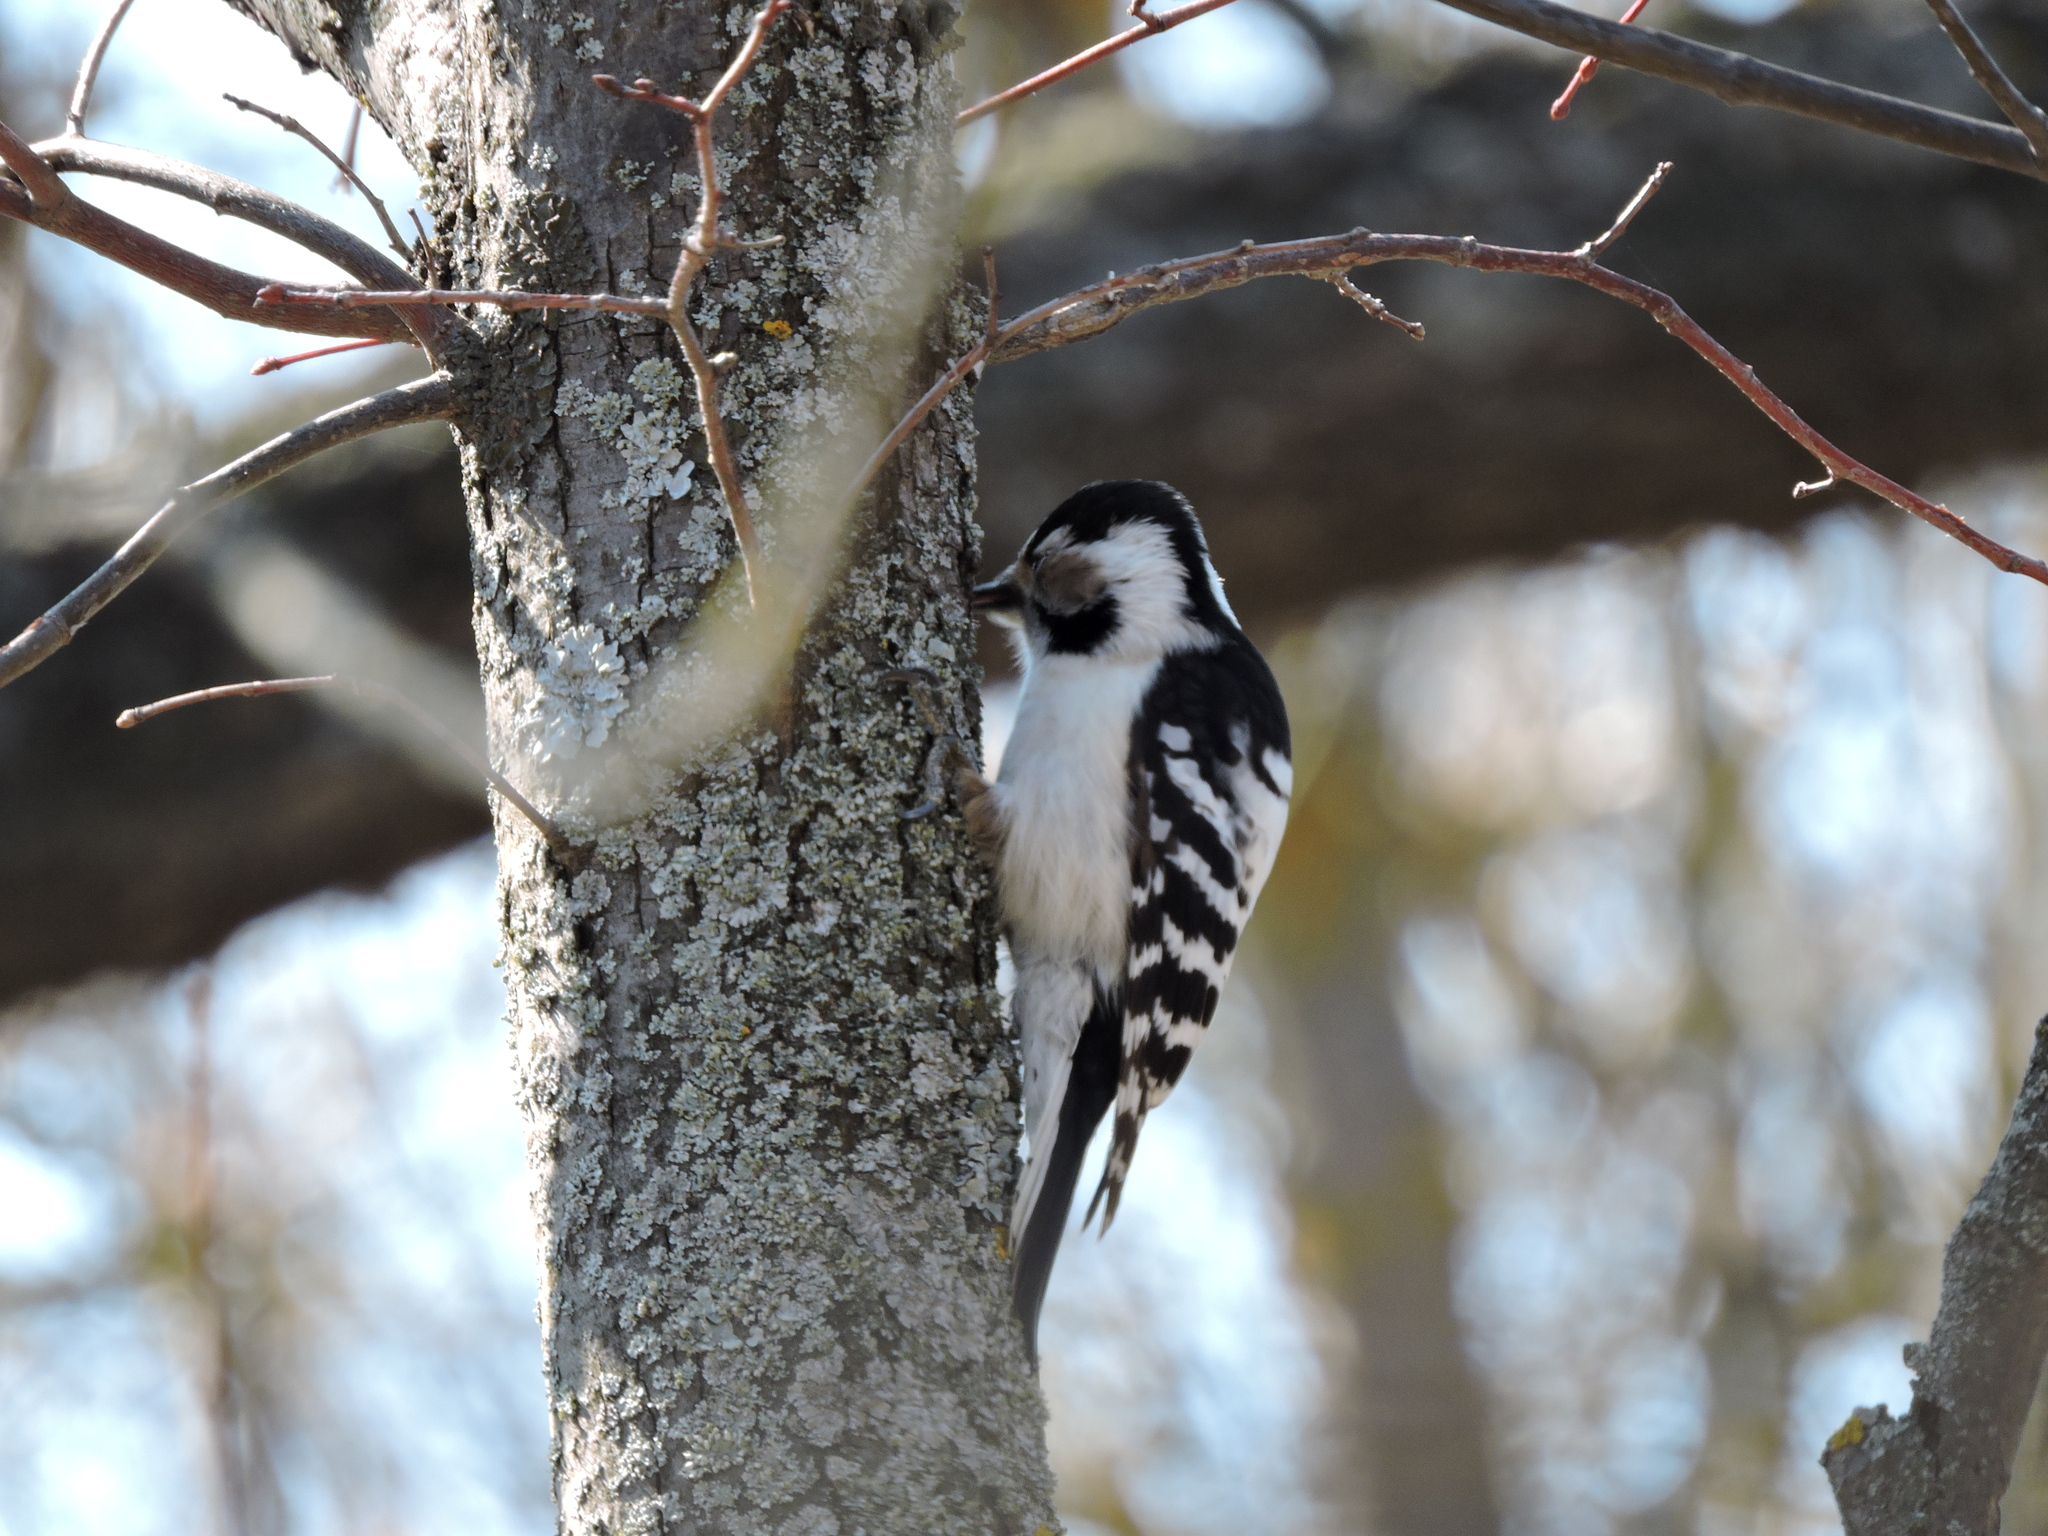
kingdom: Animalia
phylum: Chordata
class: Aves
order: Piciformes
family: Picidae
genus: Dryobates
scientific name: Dryobates minor
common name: Lesser spotted woodpecker
